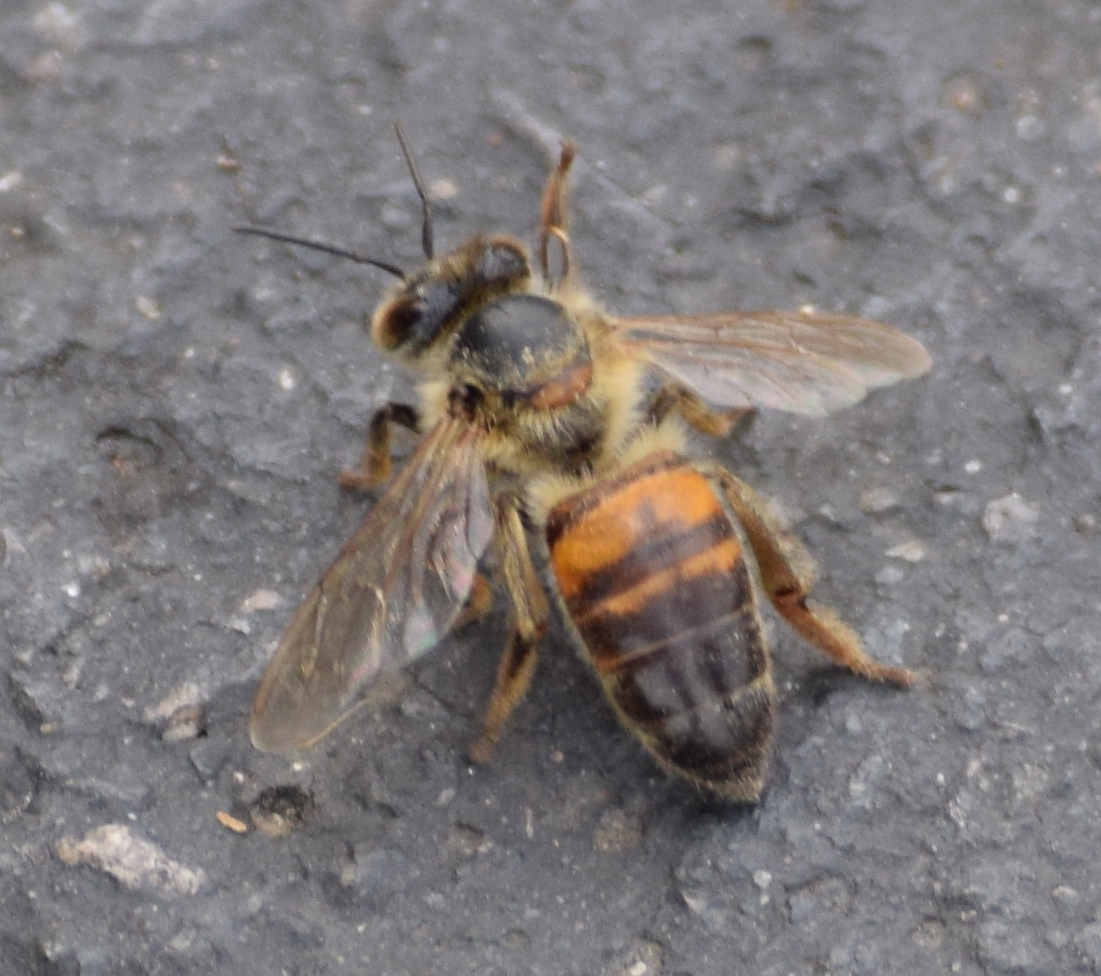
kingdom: Animalia
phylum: Arthropoda
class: Insecta
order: Hymenoptera
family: Apidae
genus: Apis
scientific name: Apis mellifera
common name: Honey bee
